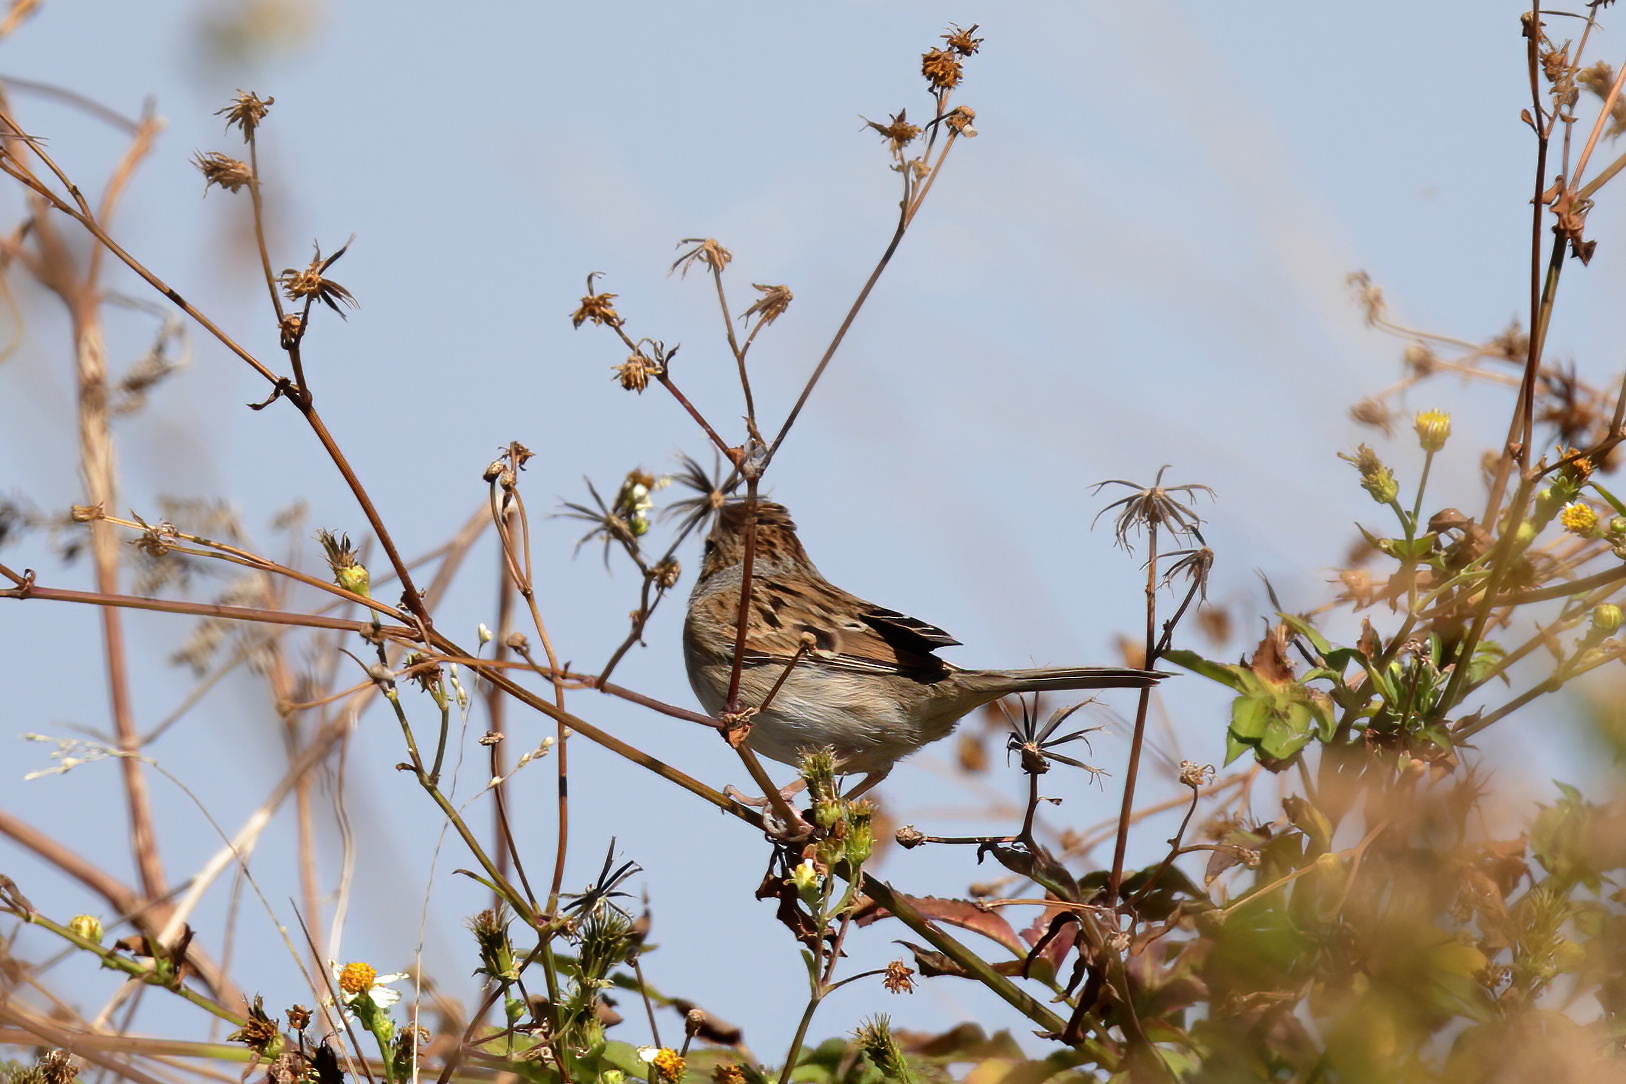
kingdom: Animalia
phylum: Chordata
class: Aves
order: Passeriformes
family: Passerellidae
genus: Spizella
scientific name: Spizella pallida
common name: Clay-colored sparrow
